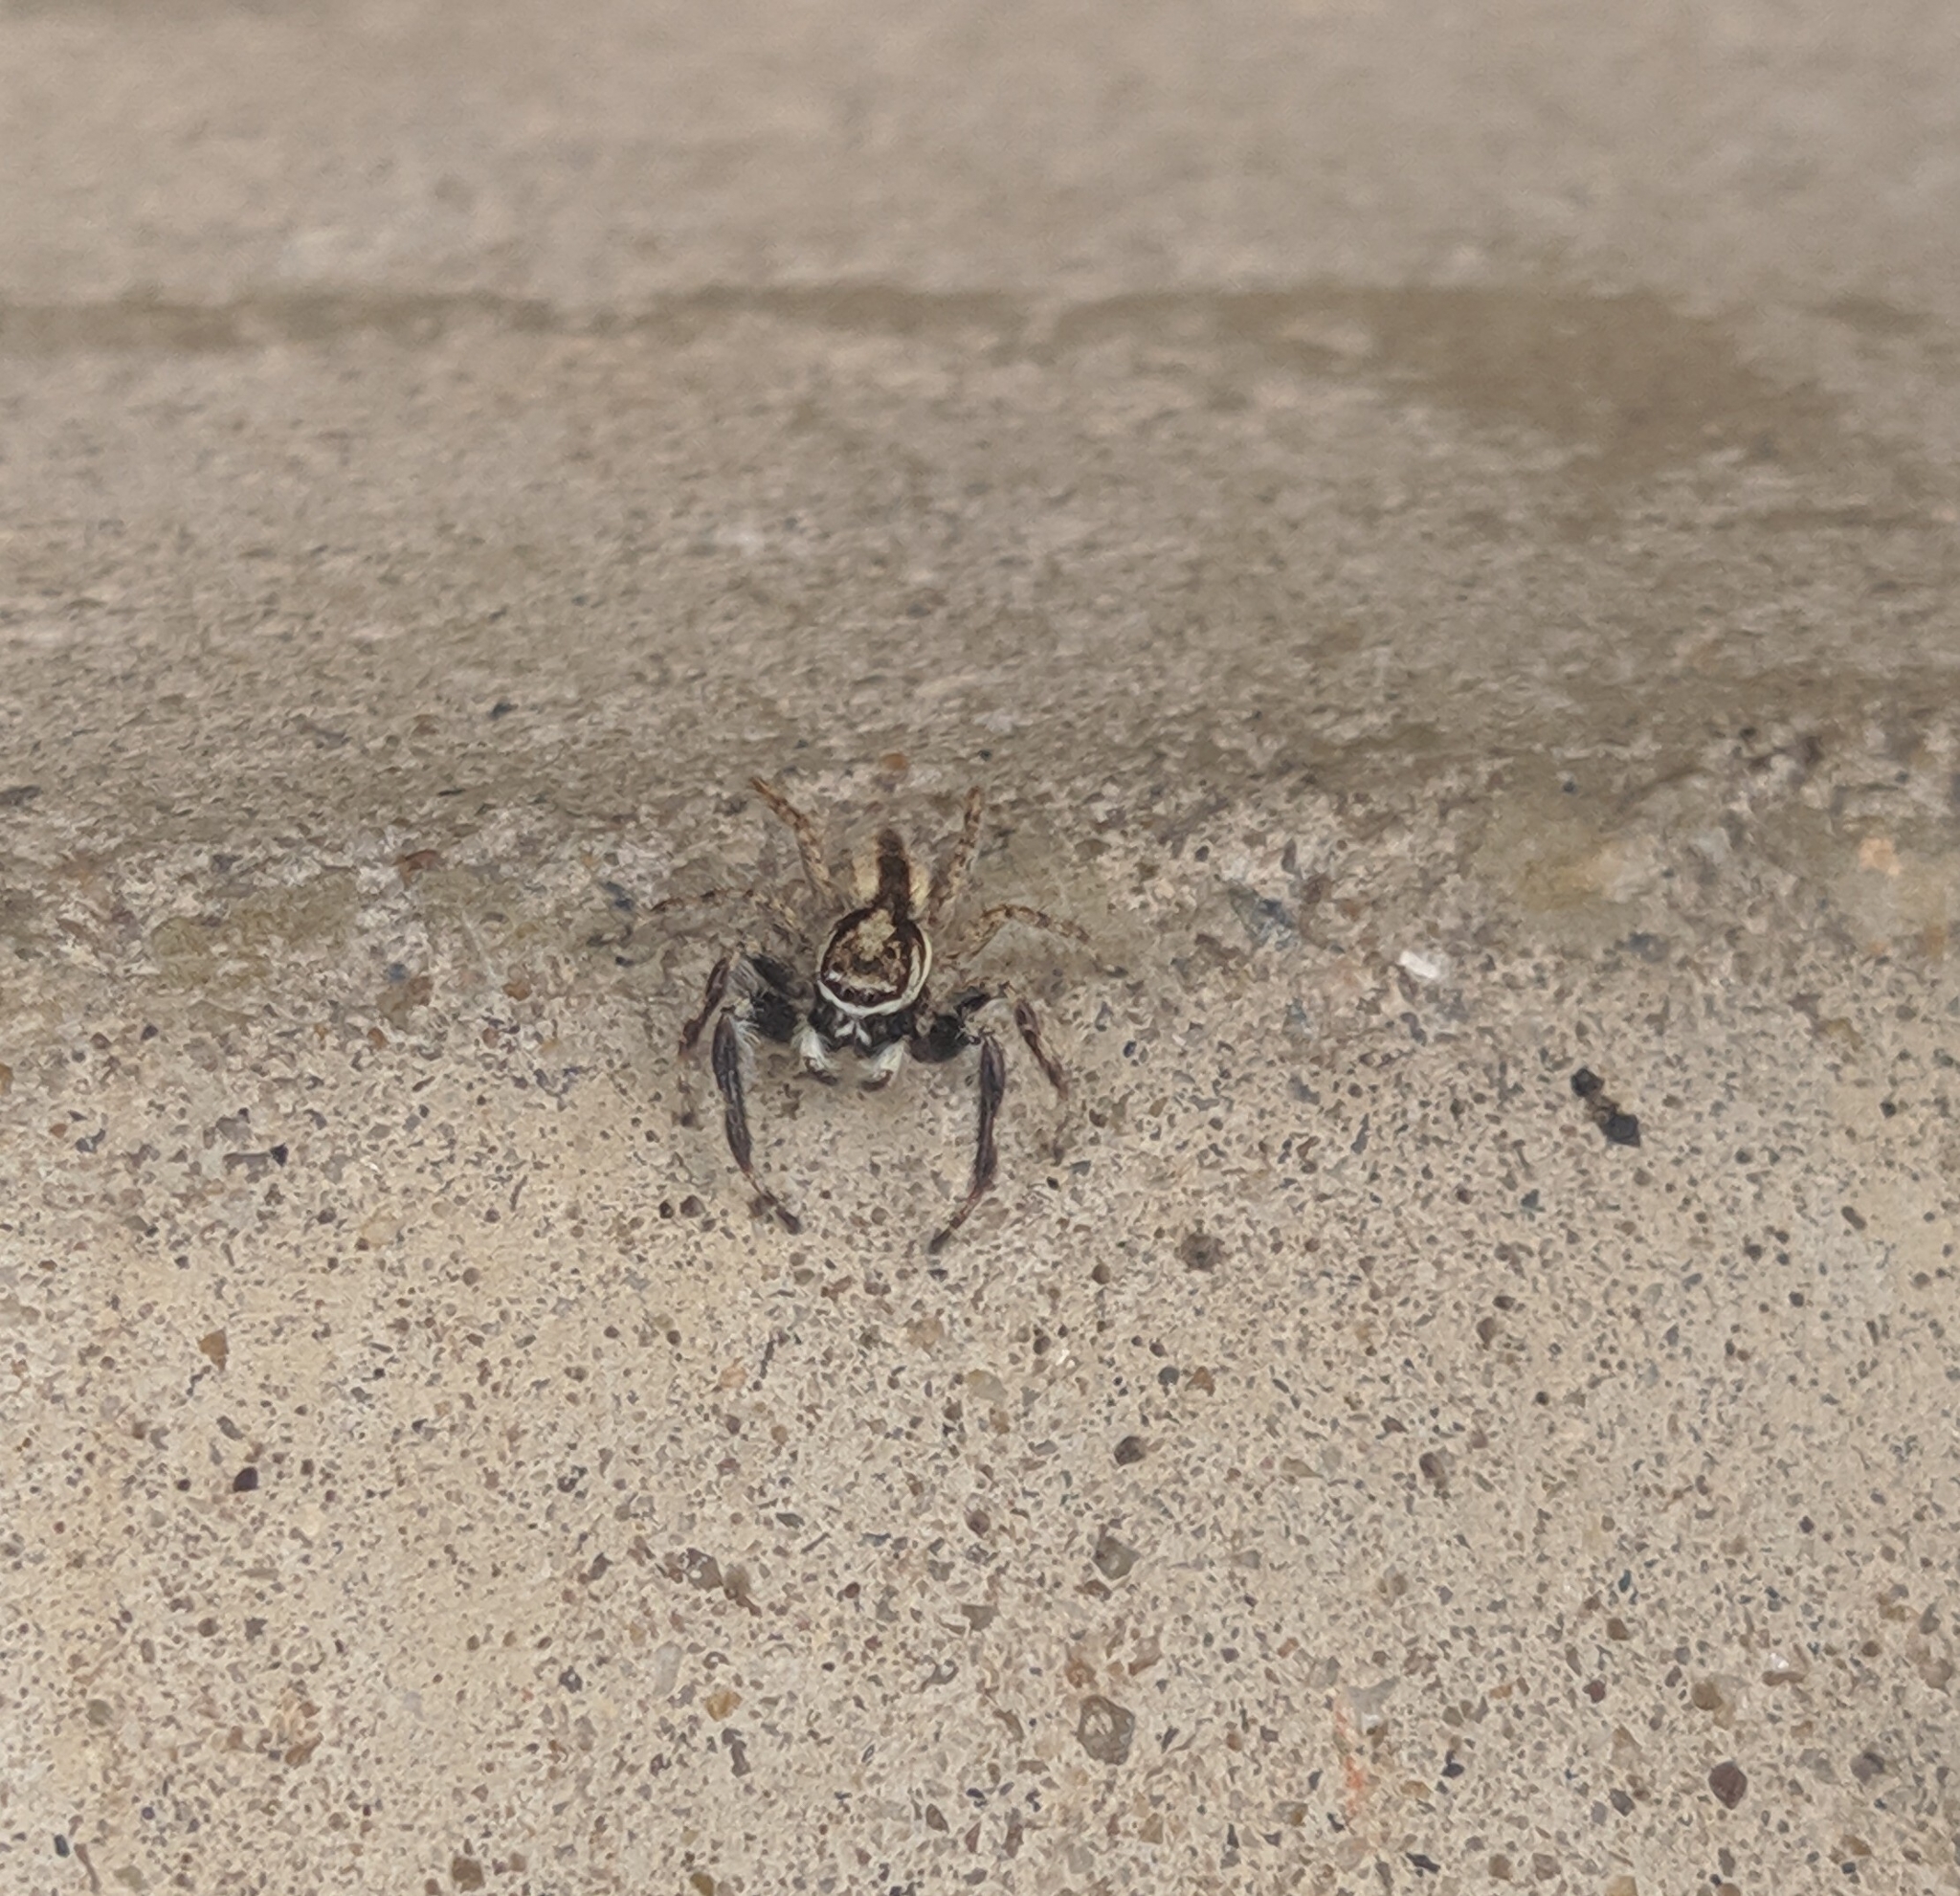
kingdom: Animalia
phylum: Arthropoda
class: Arachnida
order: Araneae
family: Salticidae
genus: Menemerus
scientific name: Menemerus bivittatus
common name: Gray wall jumper
